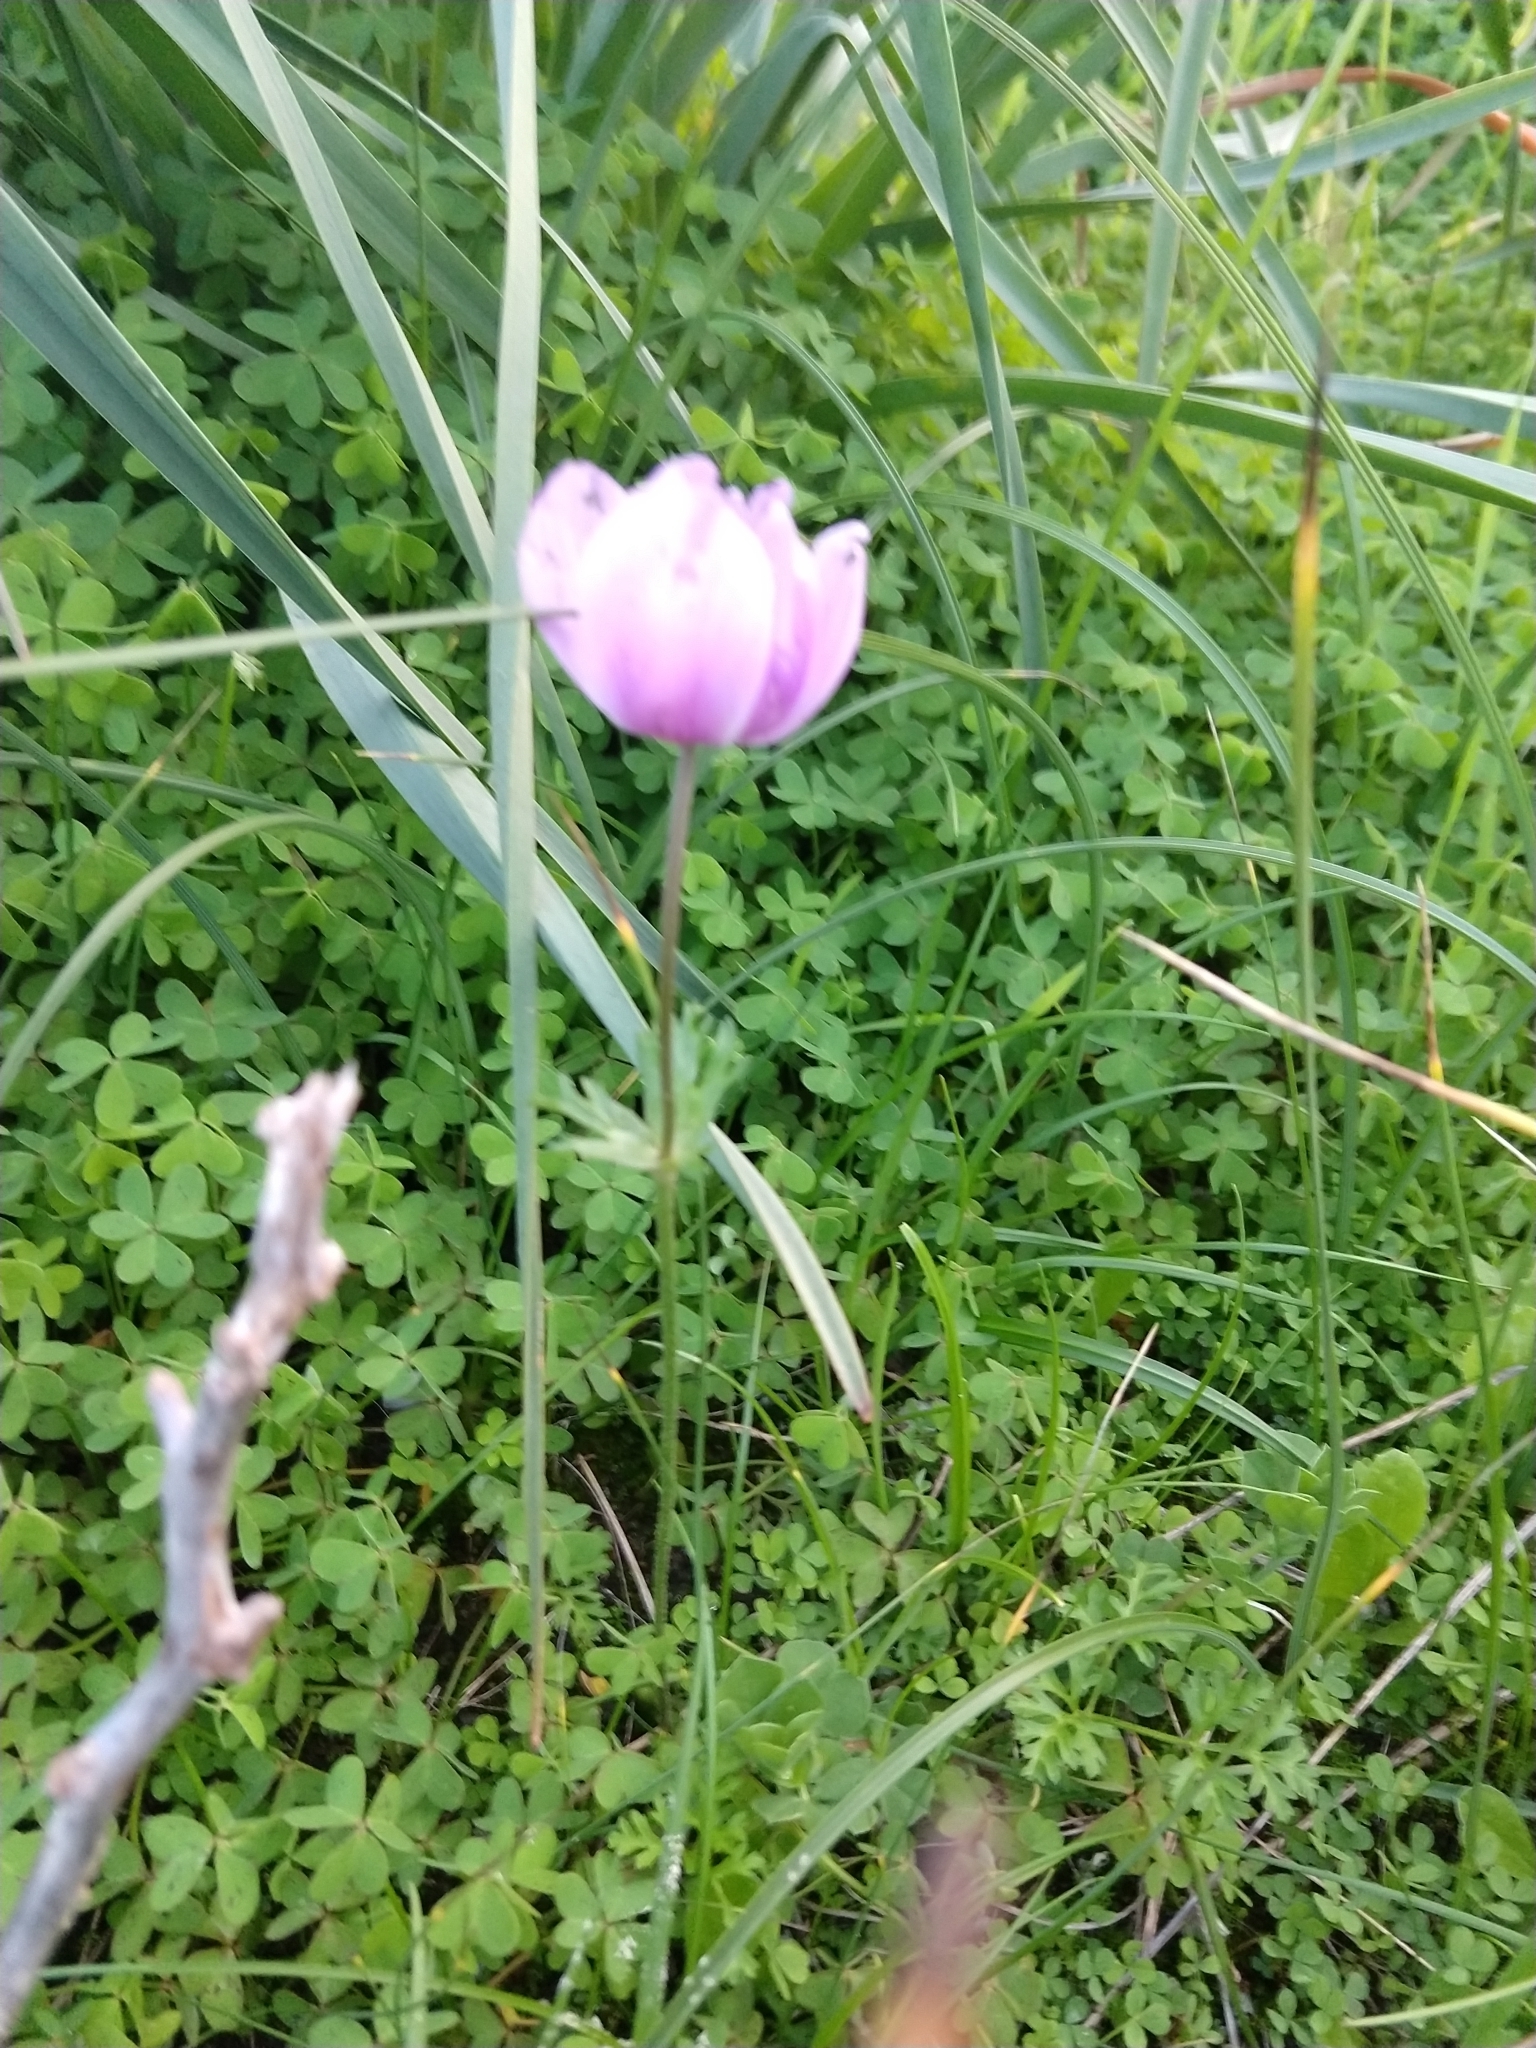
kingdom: Plantae
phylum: Tracheophyta
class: Magnoliopsida
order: Ranunculales
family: Ranunculaceae
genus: Anemone
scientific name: Anemone coronaria
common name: Poppy anemone
